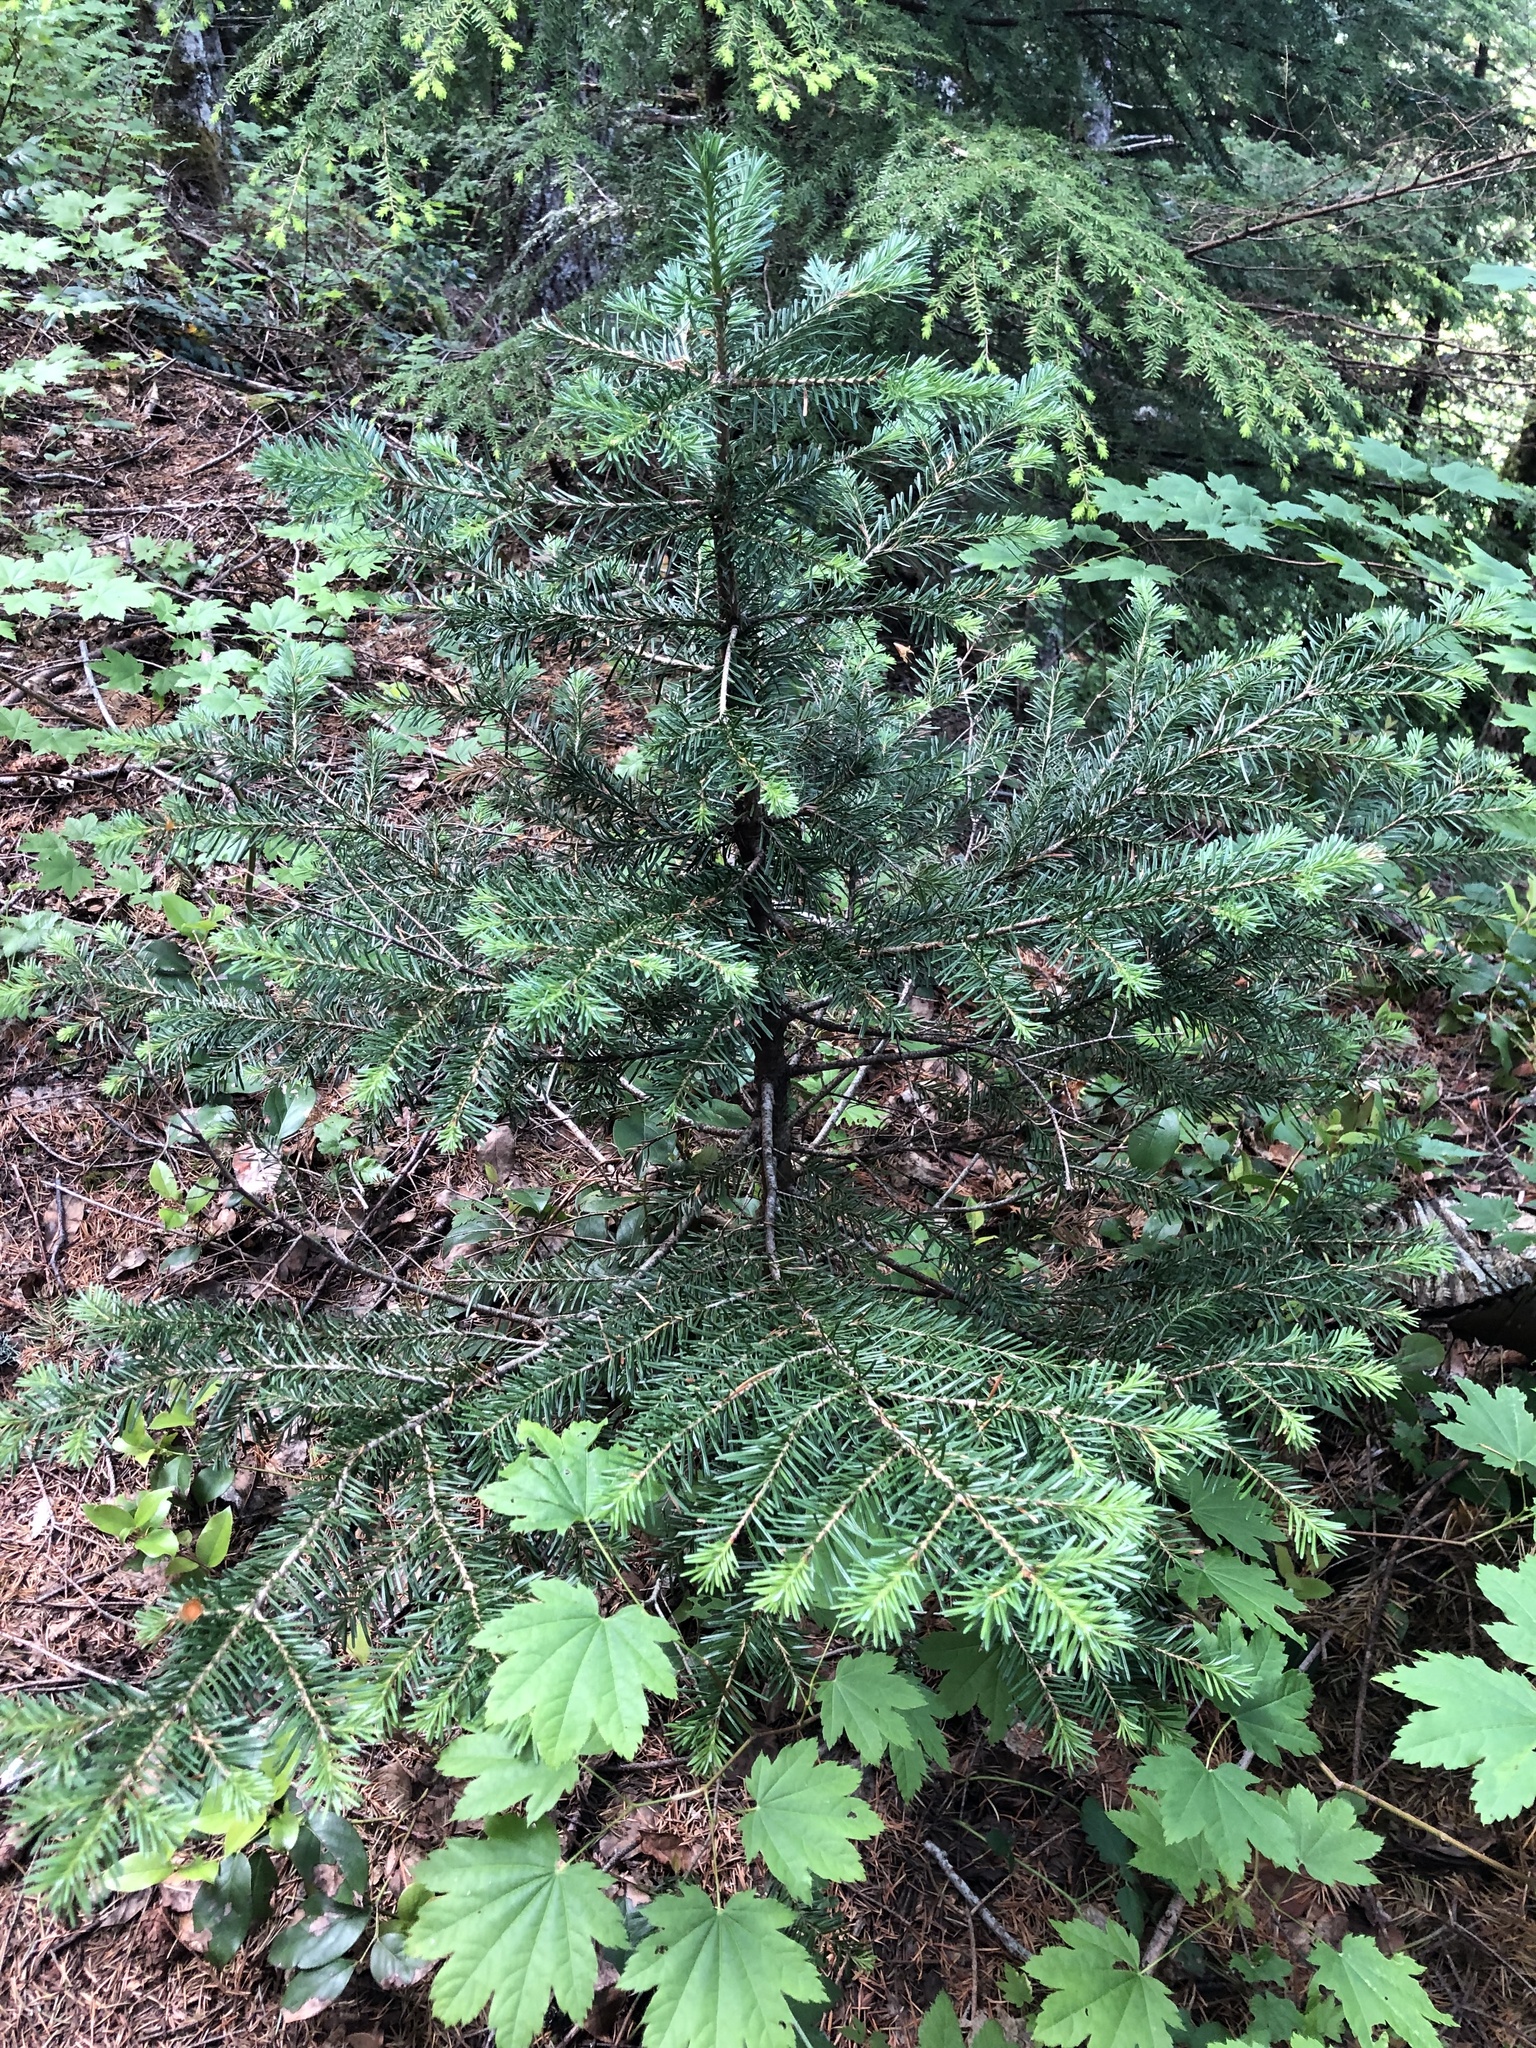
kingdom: Plantae
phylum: Tracheophyta
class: Pinopsida
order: Pinales
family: Pinaceae
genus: Abies
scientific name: Abies lasiocarpa
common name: Subalpine fir
